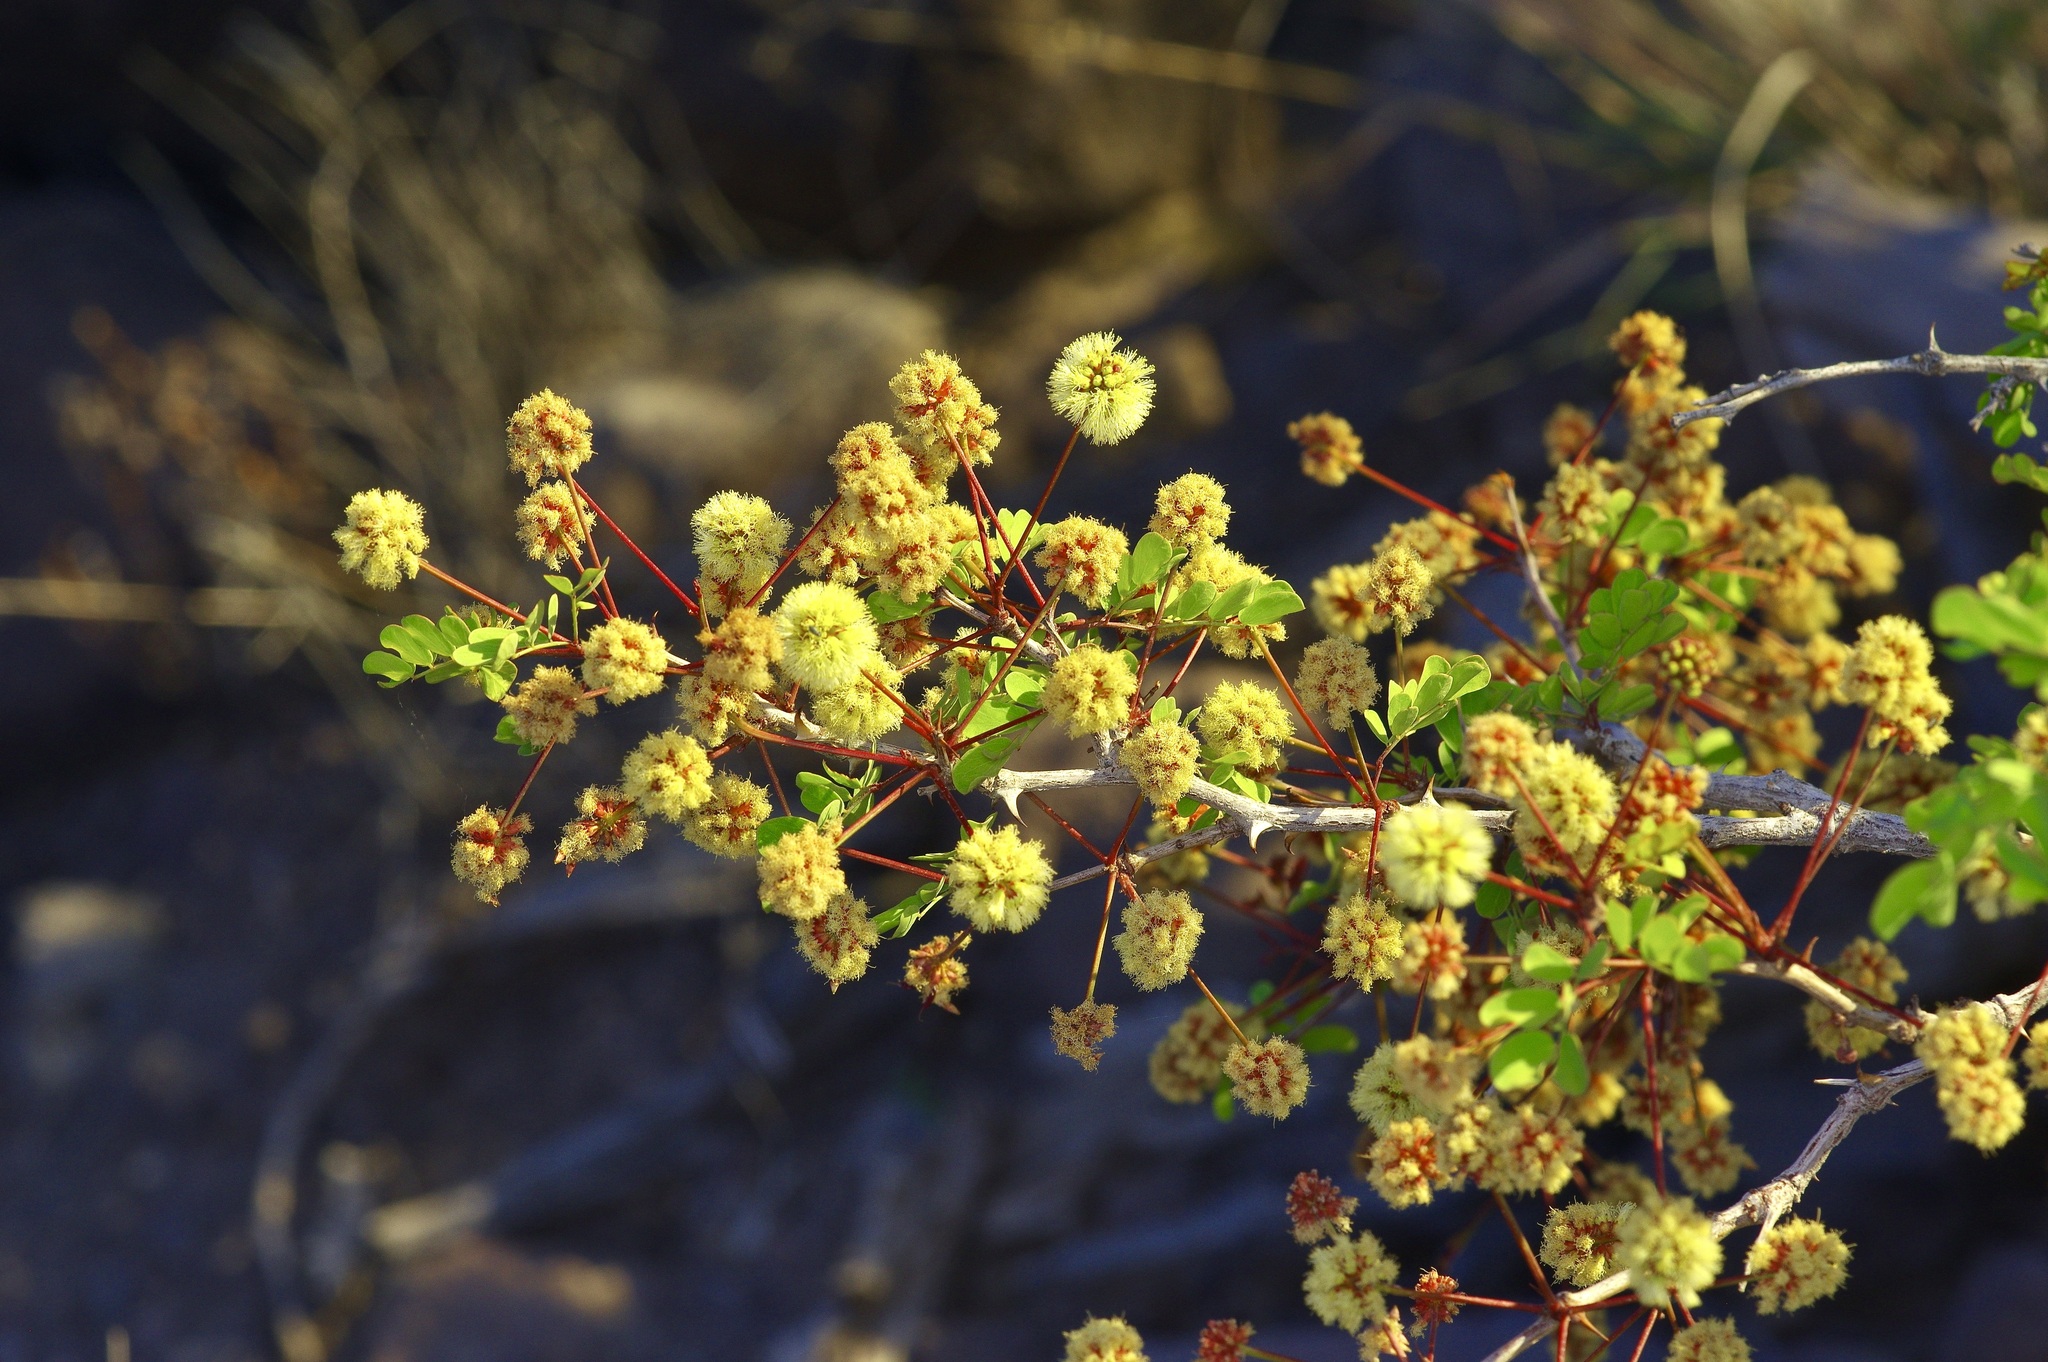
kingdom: Plantae
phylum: Tracheophyta
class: Magnoliopsida
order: Fabales
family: Fabaceae
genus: Senegalia
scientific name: Senegalia roemeriana
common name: Roemer's acacia
